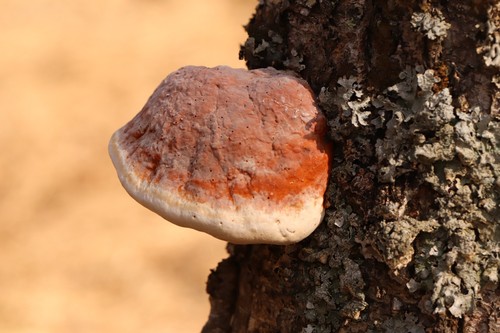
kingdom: Fungi
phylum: Basidiomycota
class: Agaricomycetes
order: Polyporales
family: Fomitopsidaceae
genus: Fomitopsis
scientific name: Fomitopsis pinicola
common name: Red-belted bracket
